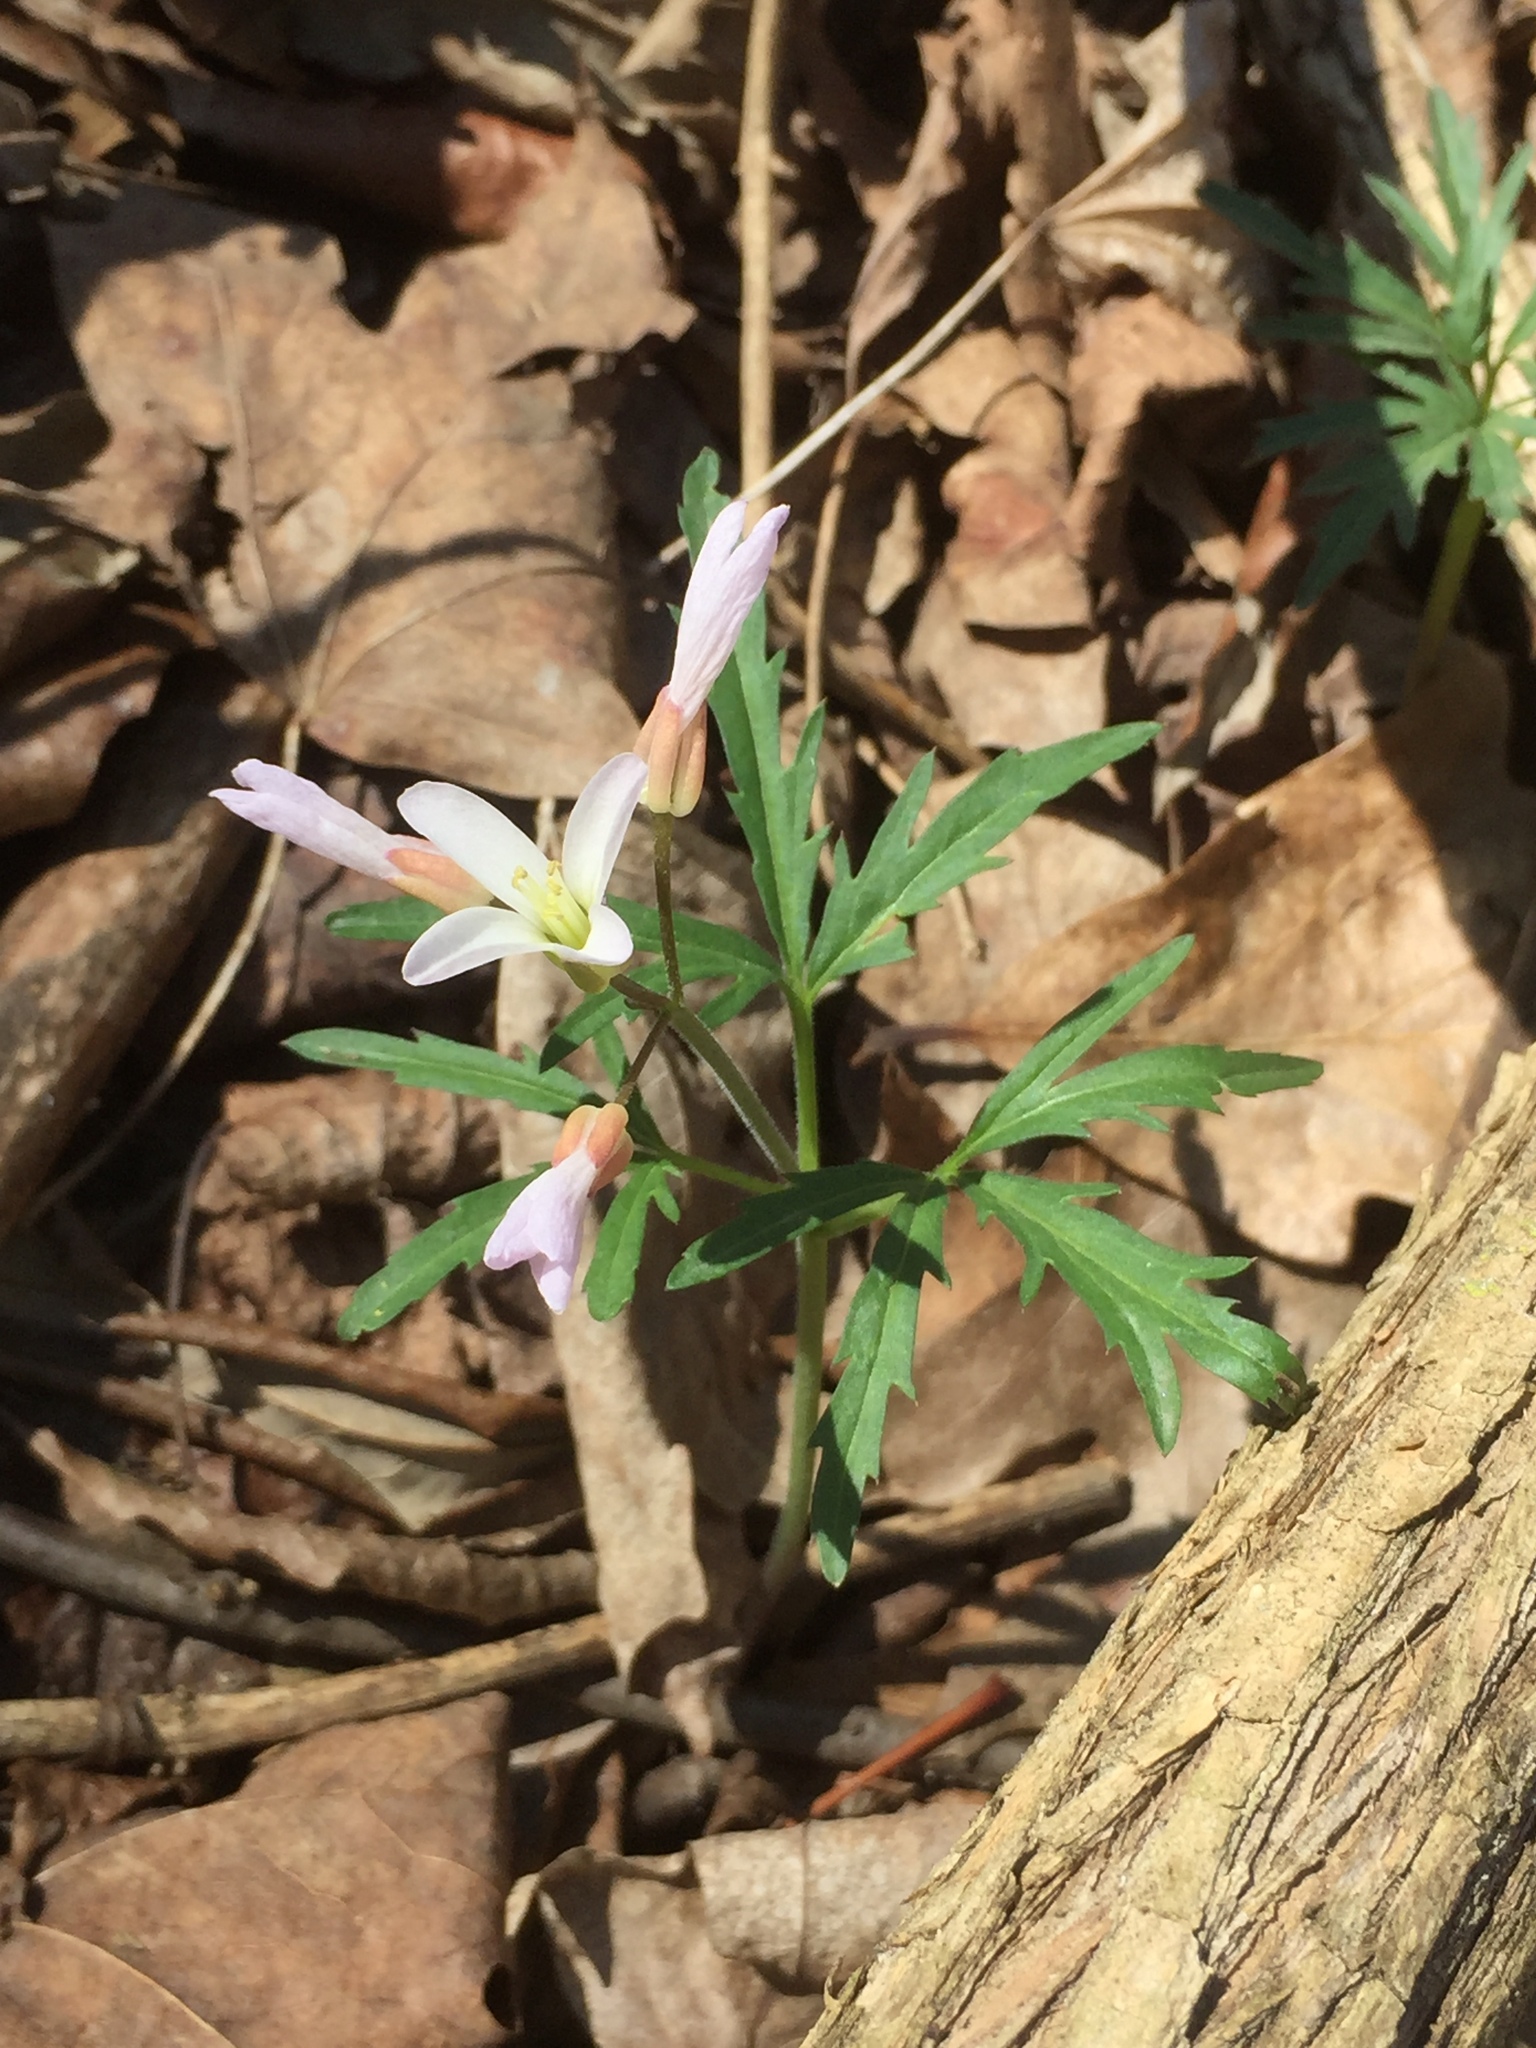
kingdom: Plantae
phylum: Tracheophyta
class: Magnoliopsida
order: Brassicales
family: Brassicaceae
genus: Cardamine
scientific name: Cardamine concatenata
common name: Cut-leaf toothcup
